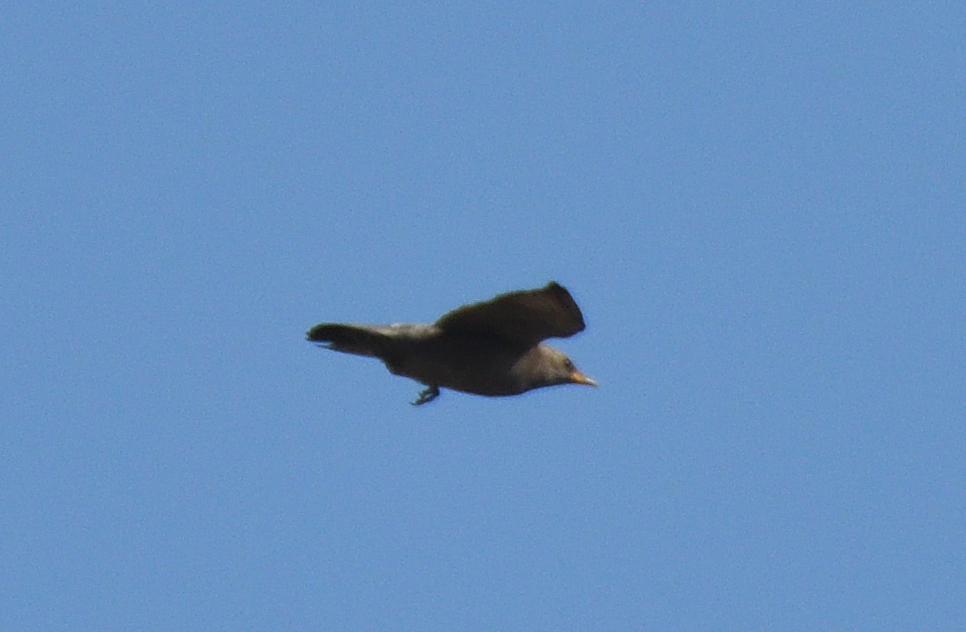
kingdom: Animalia
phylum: Chordata
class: Aves
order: Passeriformes
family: Sturnidae
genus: Sturnia
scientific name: Sturnia malabarica
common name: Chestnut-tailed starling
